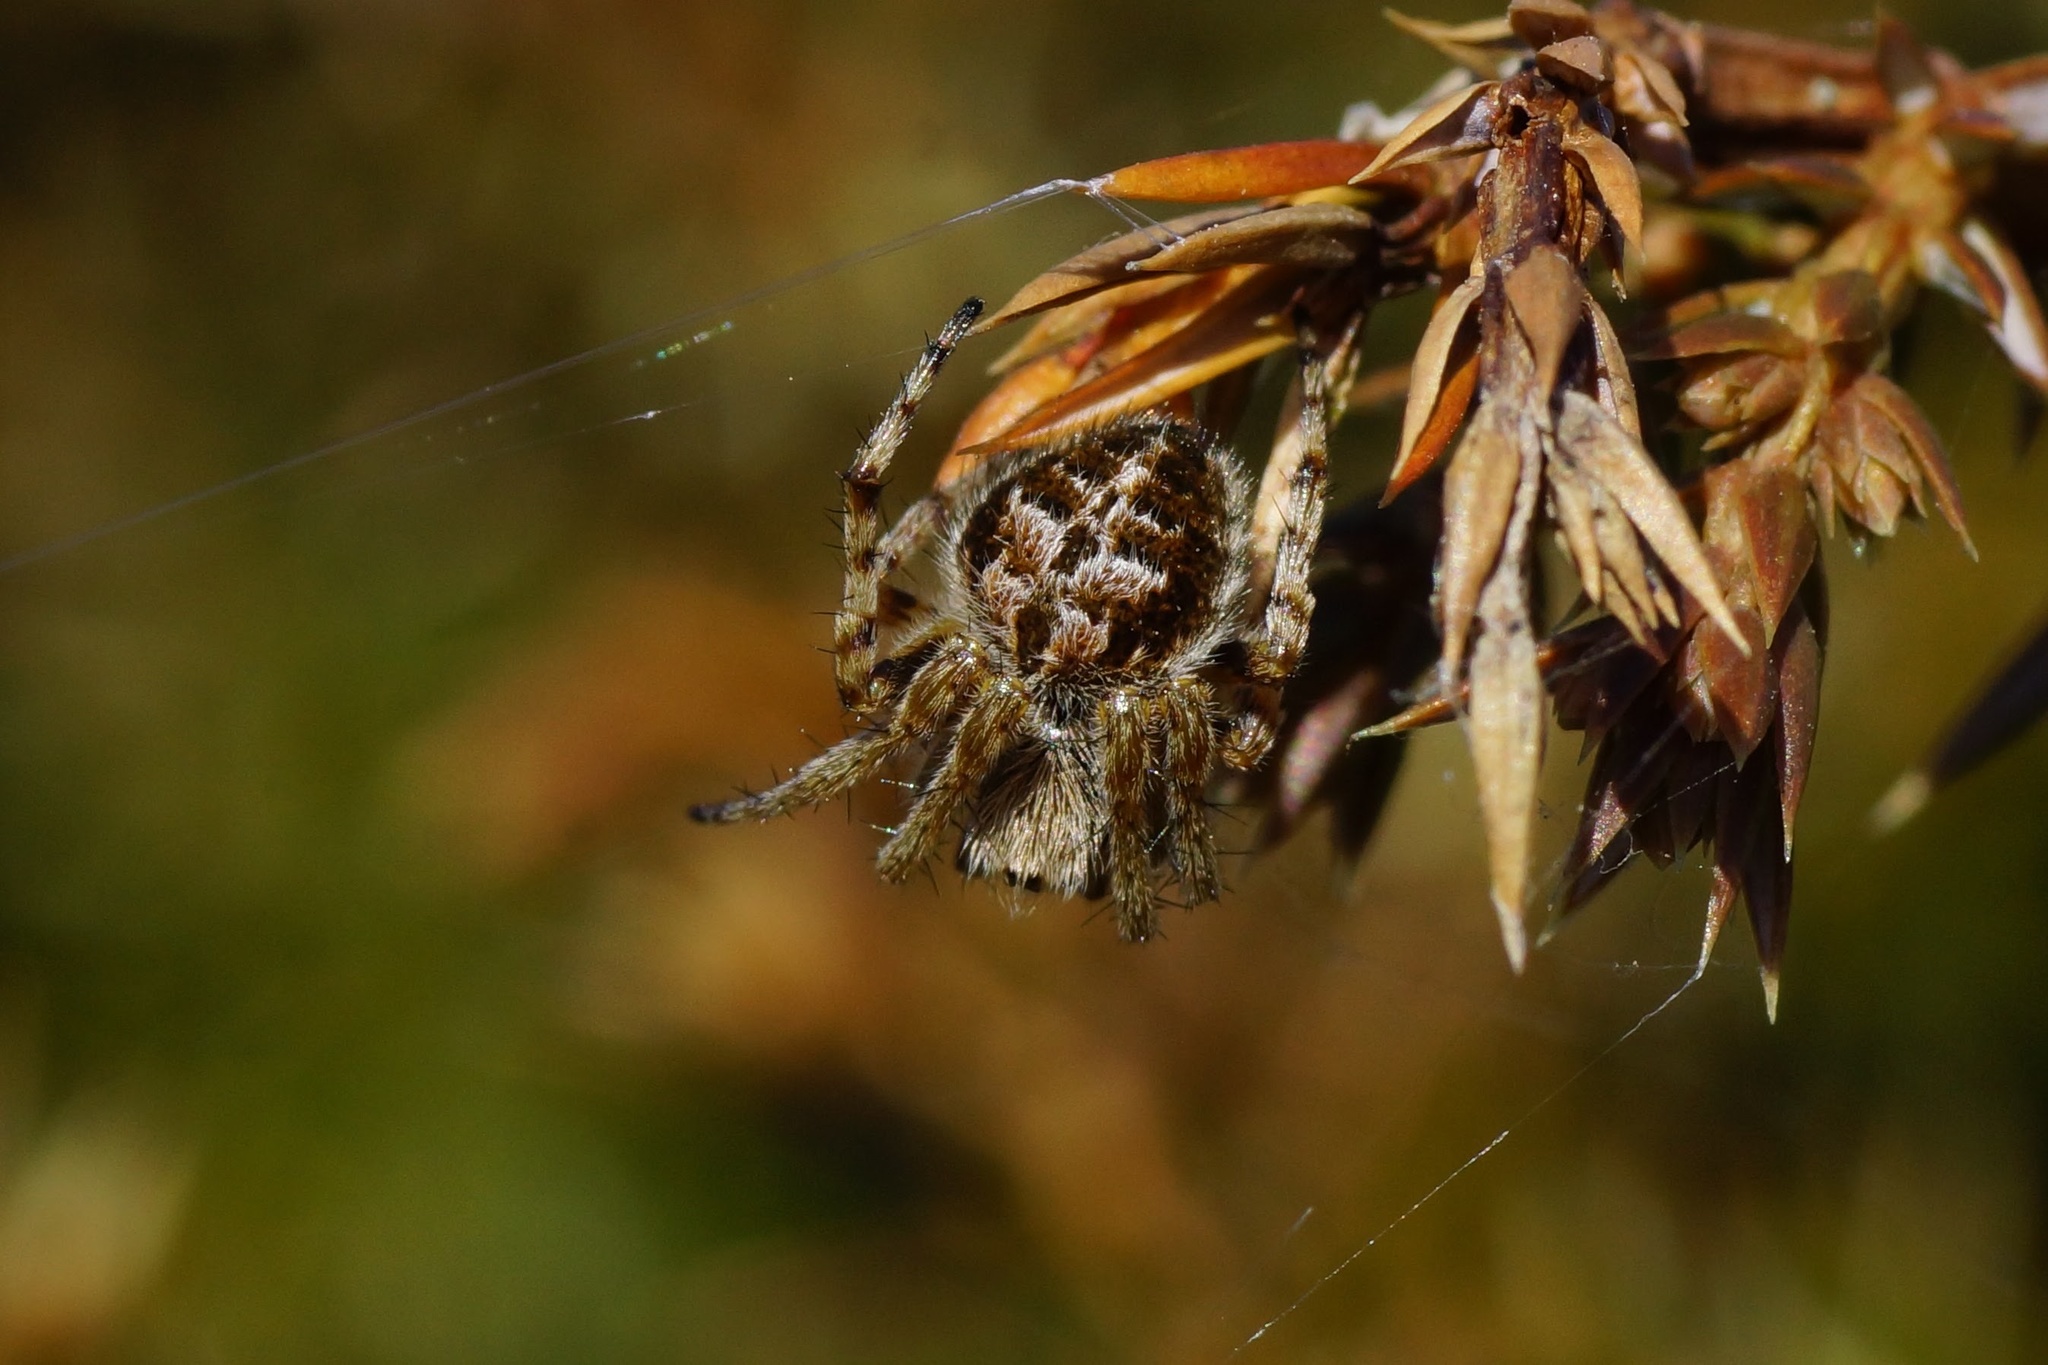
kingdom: Animalia
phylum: Arthropoda
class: Arachnida
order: Araneae
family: Araneidae
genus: Agalenatea
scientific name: Agalenatea redii
